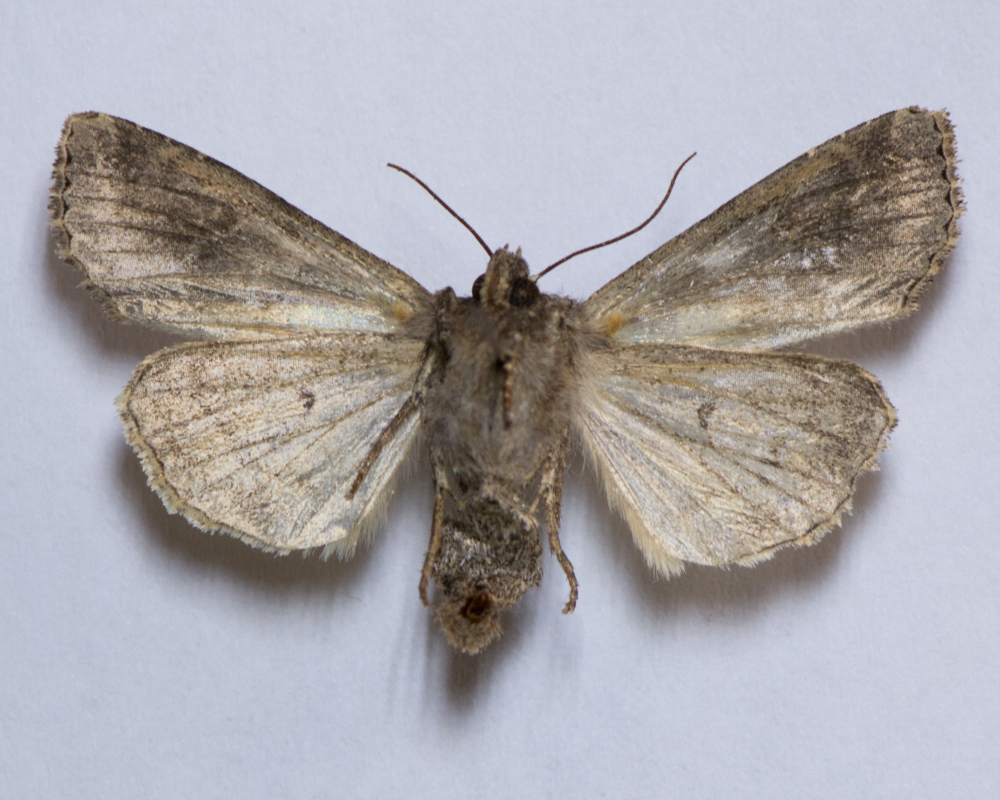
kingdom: Animalia
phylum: Arthropoda
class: Insecta
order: Lepidoptera
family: Noctuidae
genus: Apamea
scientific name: Apamea remissa
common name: Dusky brocade
